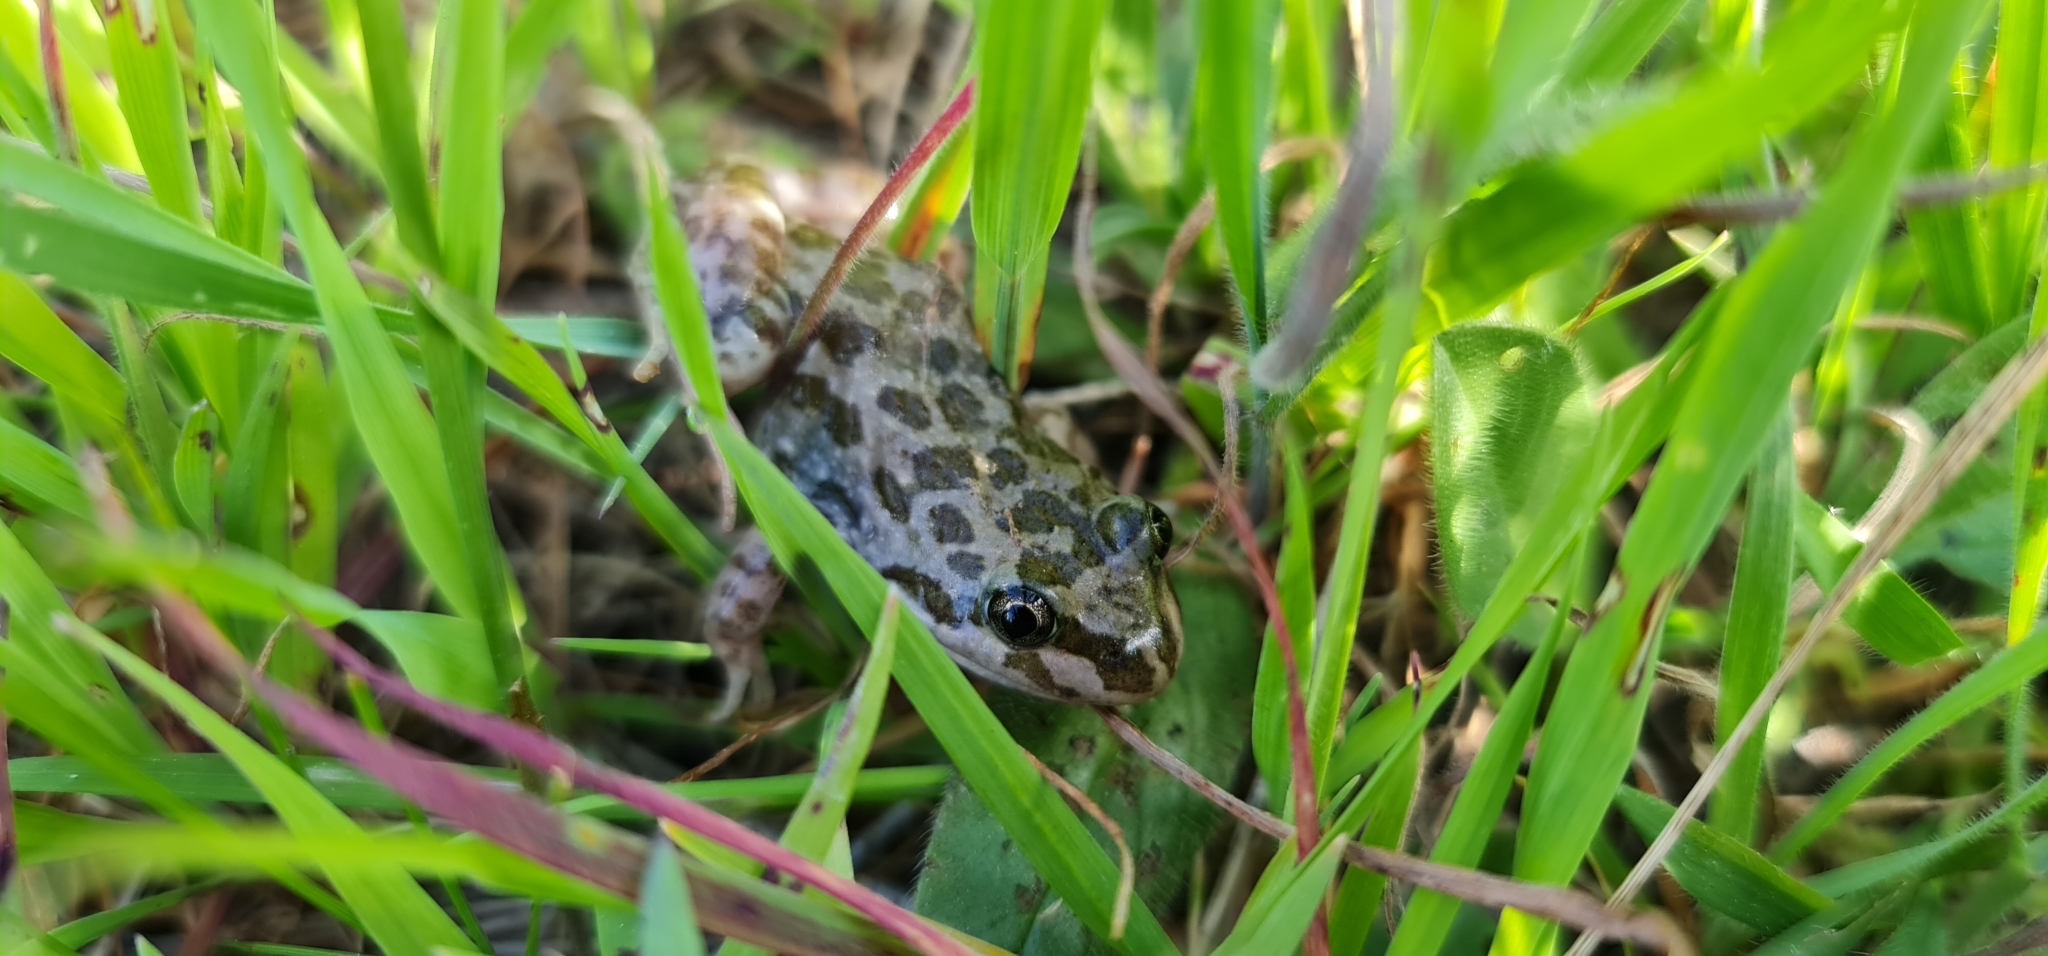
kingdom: Animalia
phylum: Chordata
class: Amphibia
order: Anura
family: Limnodynastidae
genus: Limnodynastes
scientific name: Limnodynastes tasmaniensis
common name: Spotted marsh frog
